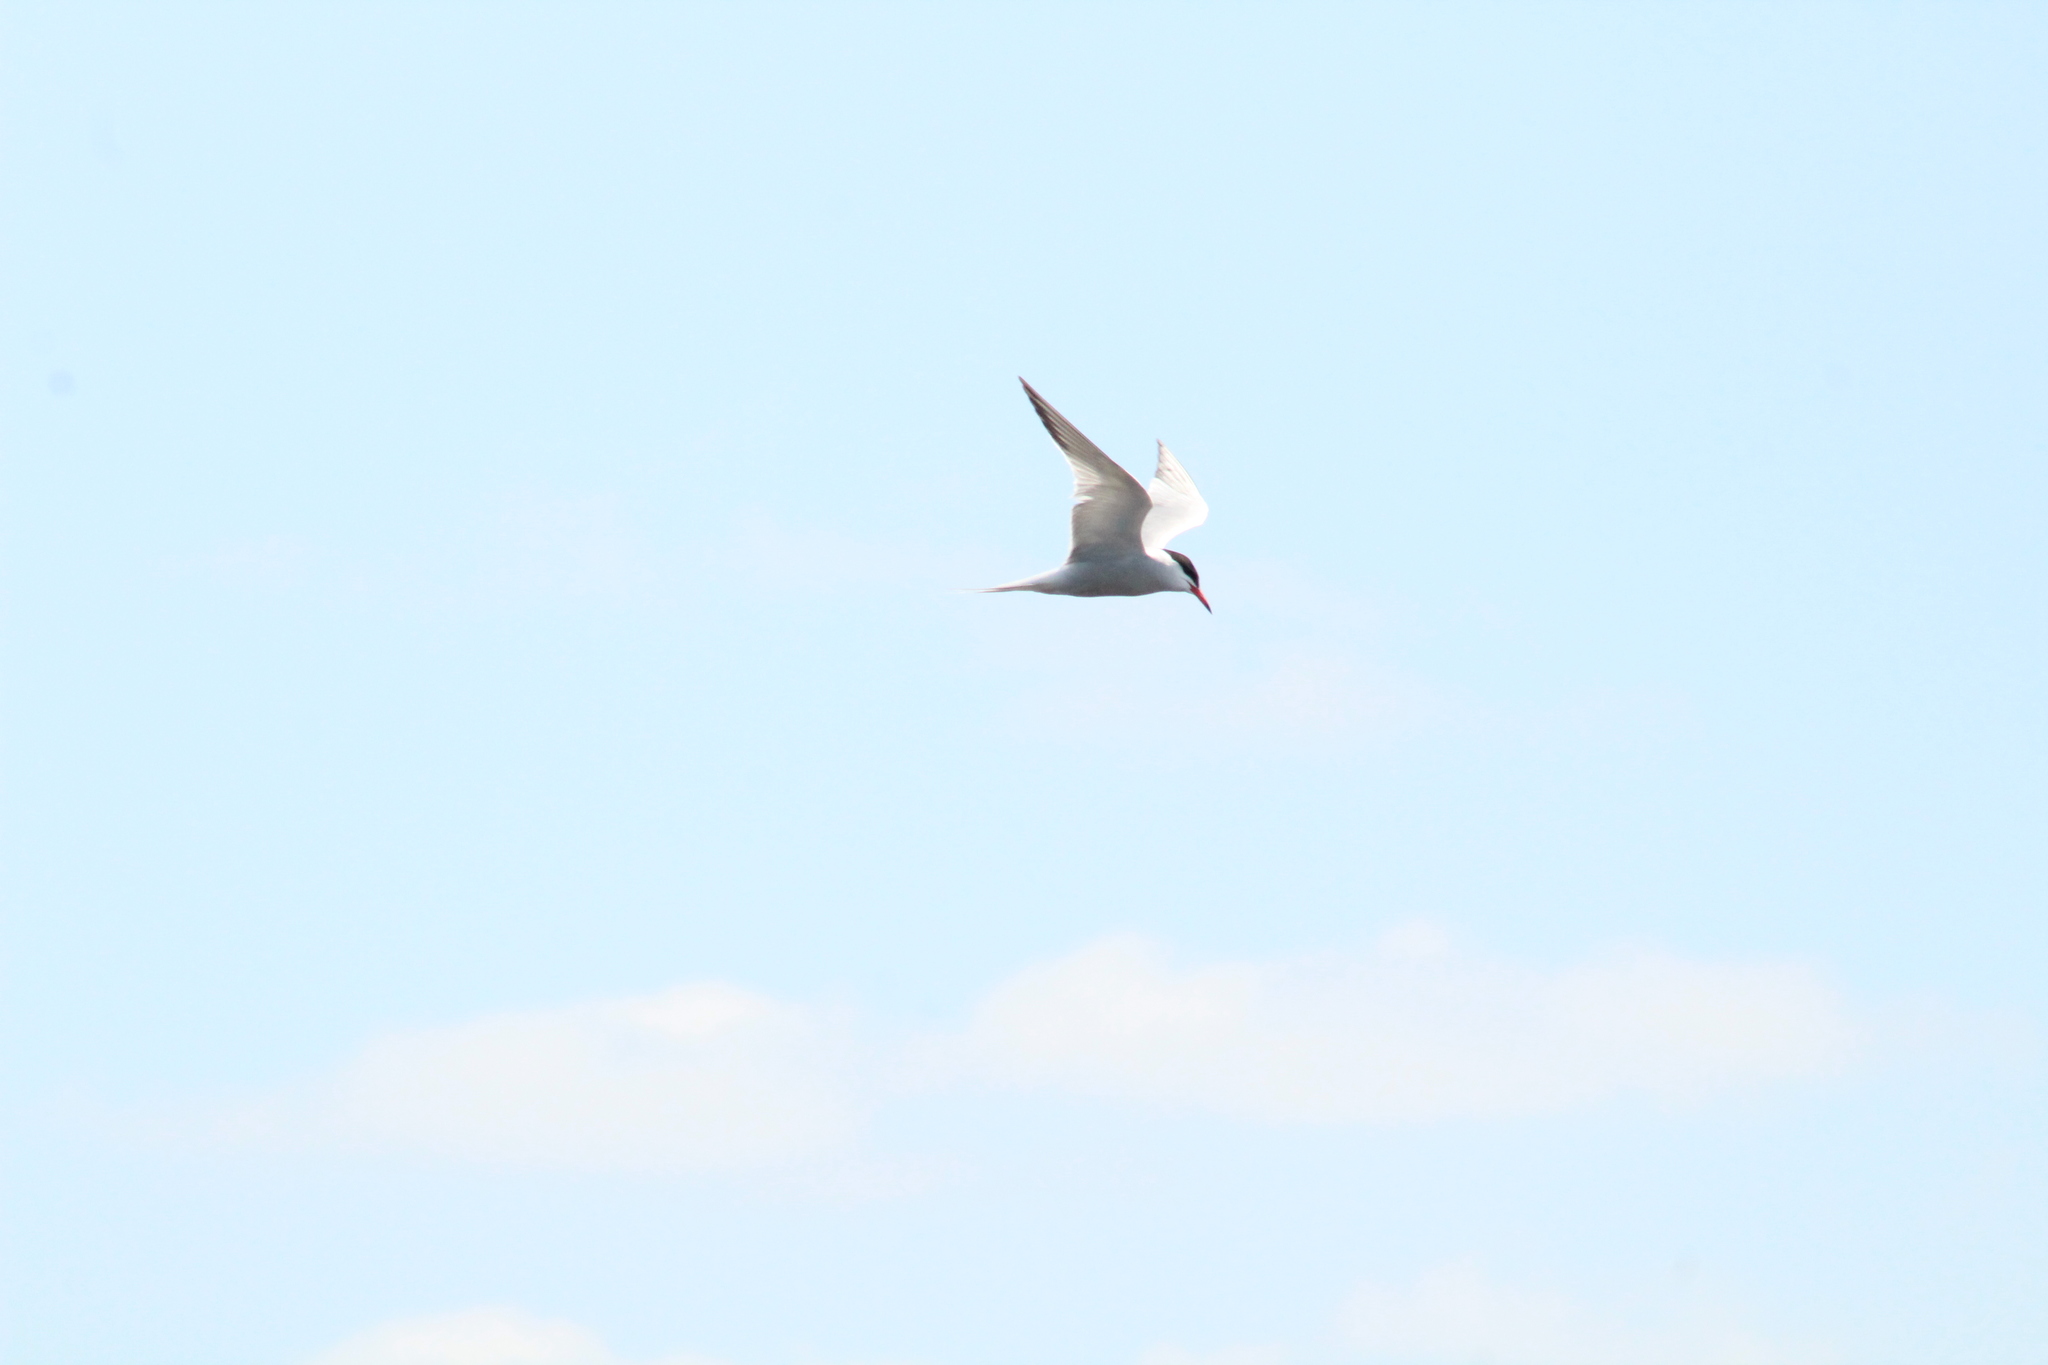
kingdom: Animalia
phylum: Chordata
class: Aves
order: Charadriiformes
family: Laridae
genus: Sterna
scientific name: Sterna hirundo
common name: Common tern
